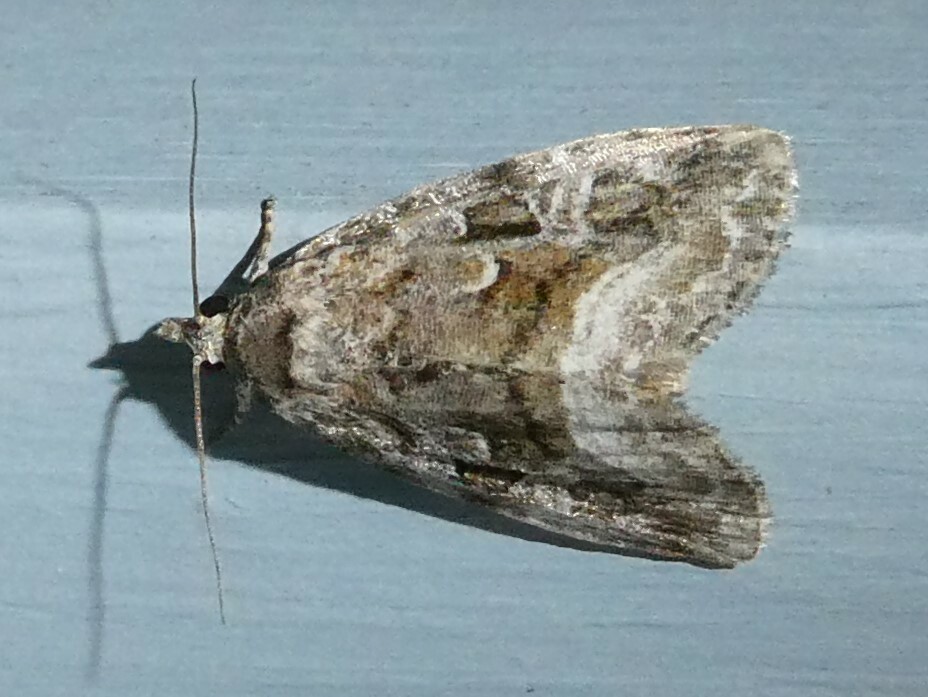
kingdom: Animalia
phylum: Arthropoda
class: Insecta
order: Lepidoptera
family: Noctuidae
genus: Protodeltote
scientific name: Protodeltote muscosula
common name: Large mossy glyph
